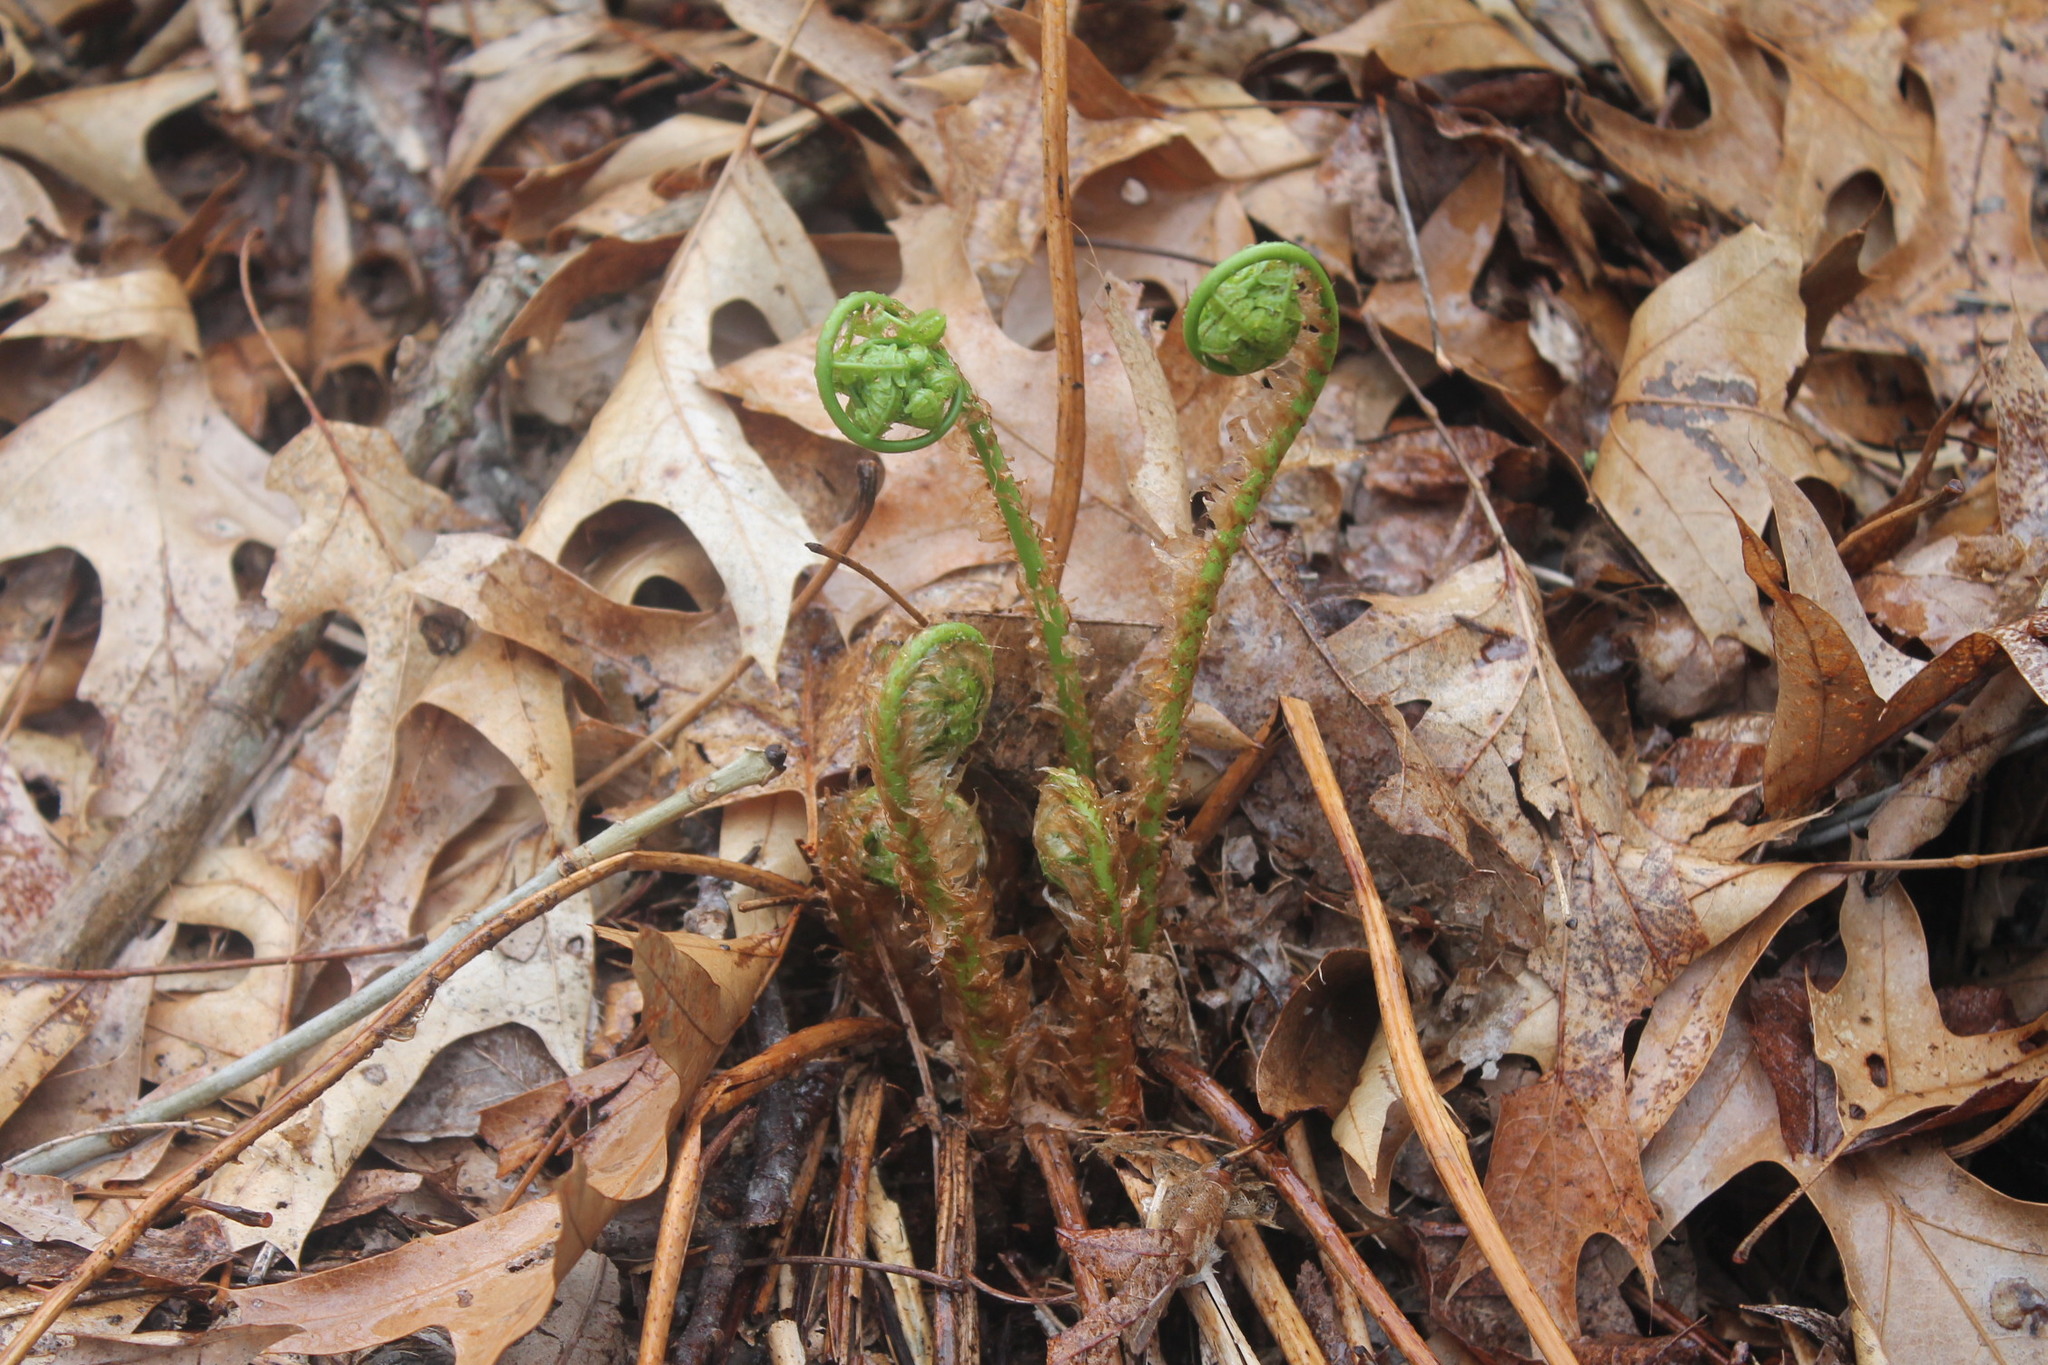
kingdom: Plantae
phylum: Tracheophyta
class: Polypodiopsida
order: Polypodiales
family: Dryopteridaceae
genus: Dryopteris
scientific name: Dryopteris marginalis
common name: Marginal wood fern
